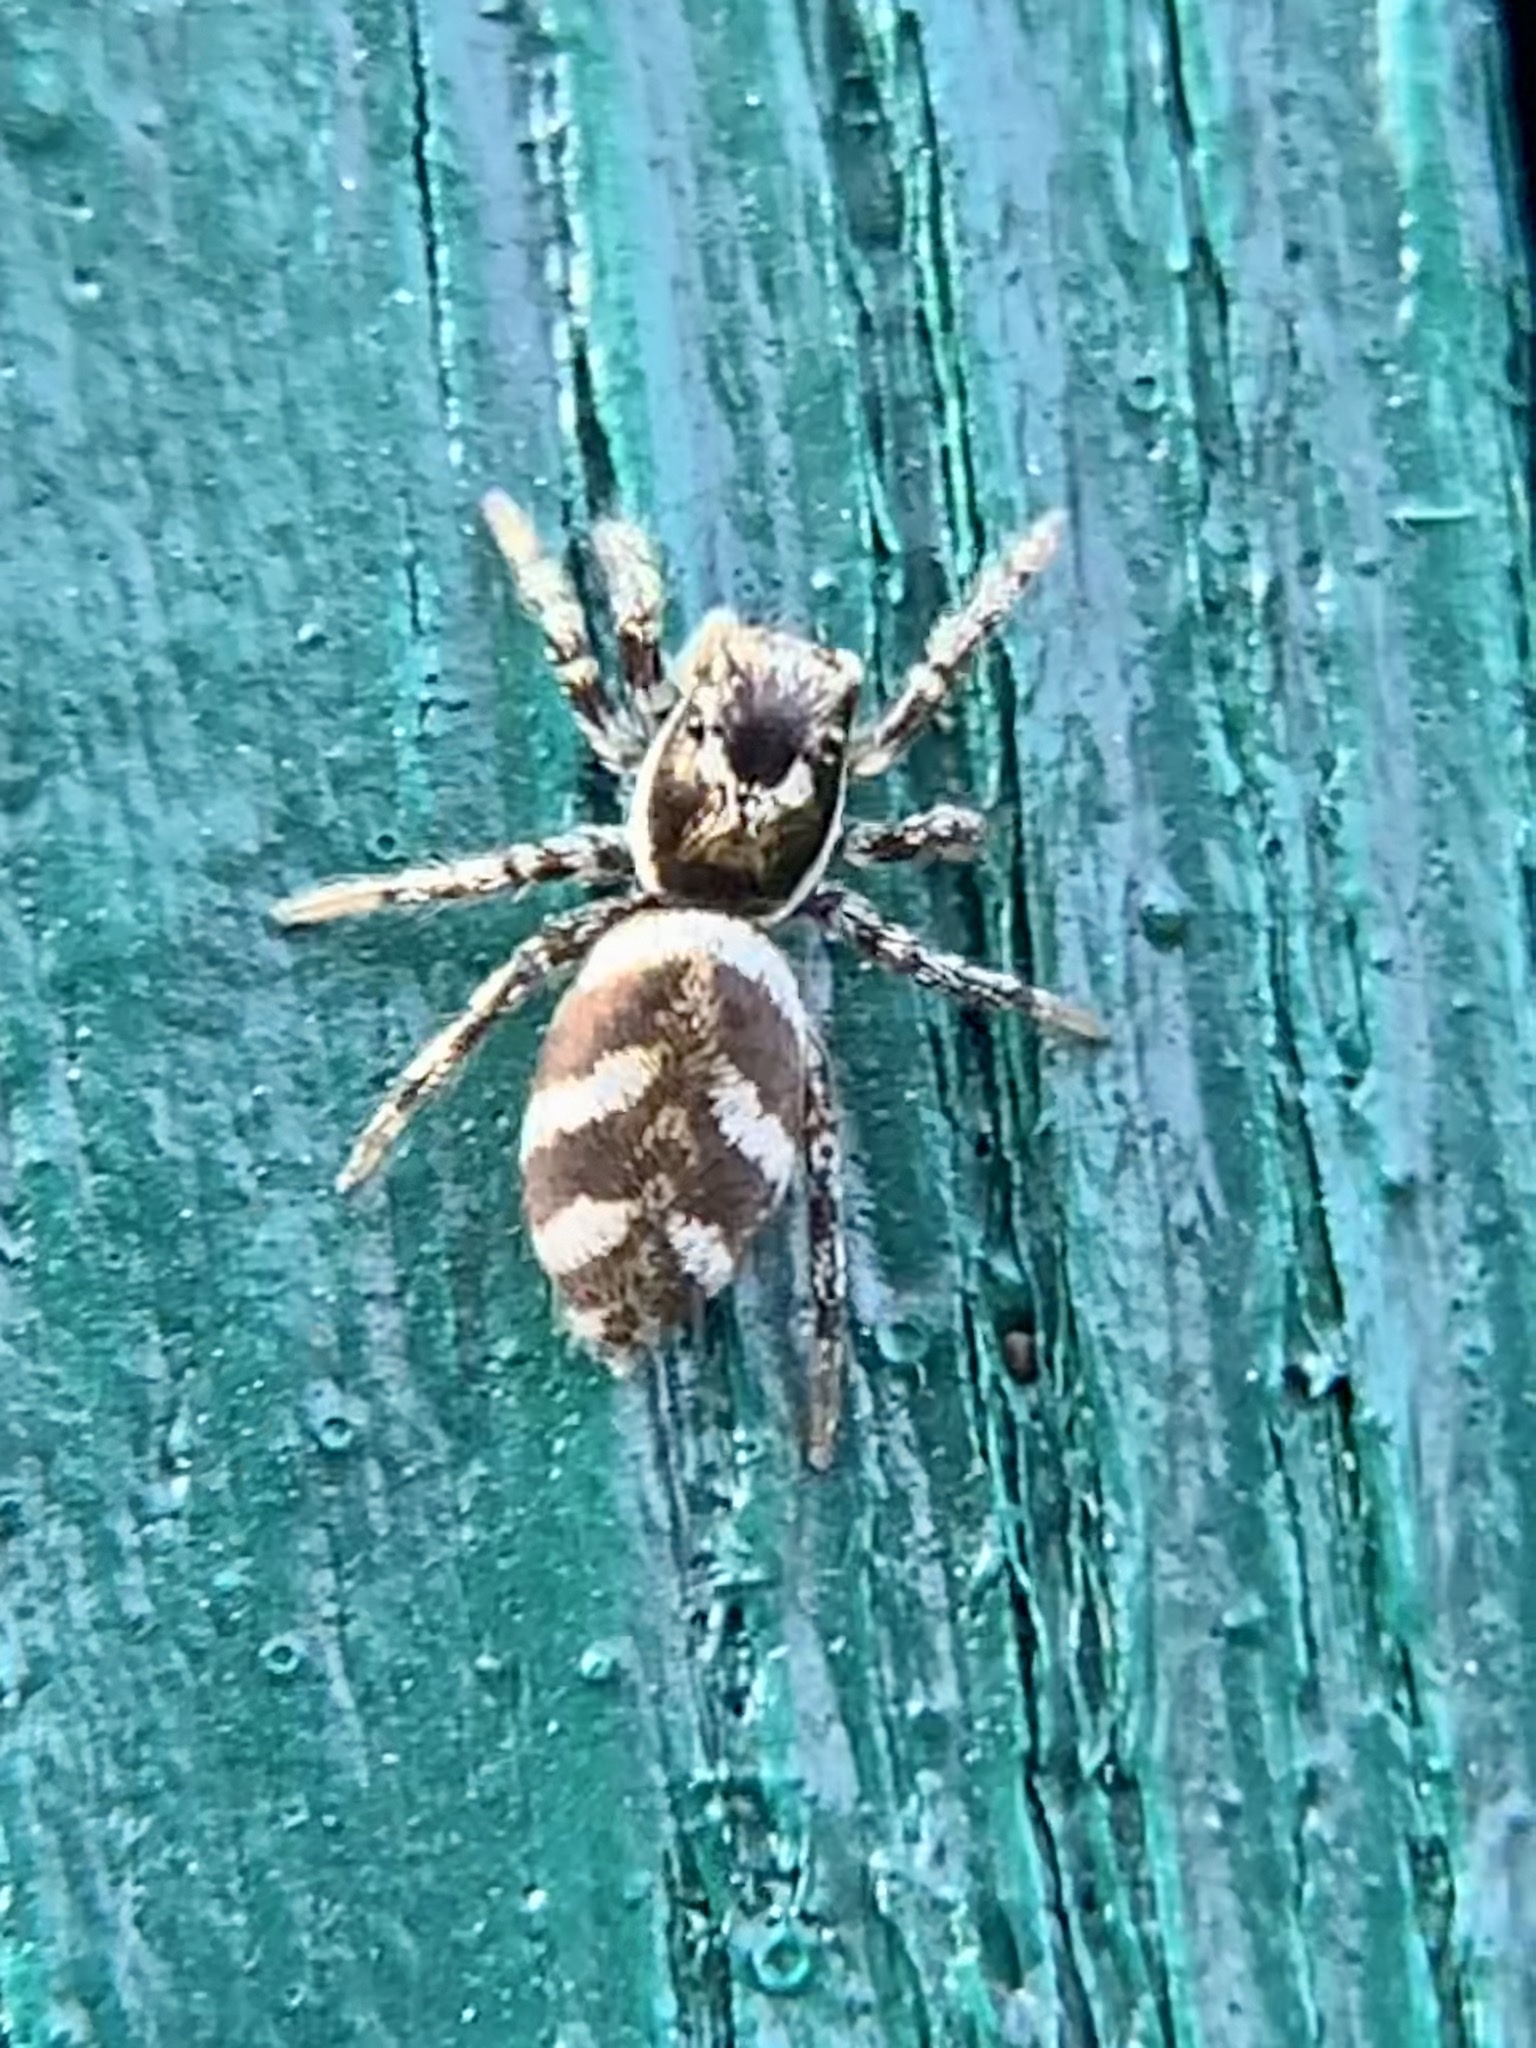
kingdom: Animalia
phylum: Arthropoda
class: Arachnida
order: Araneae
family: Salticidae
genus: Salticus
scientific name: Salticus scenicus
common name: Zebra jumper
